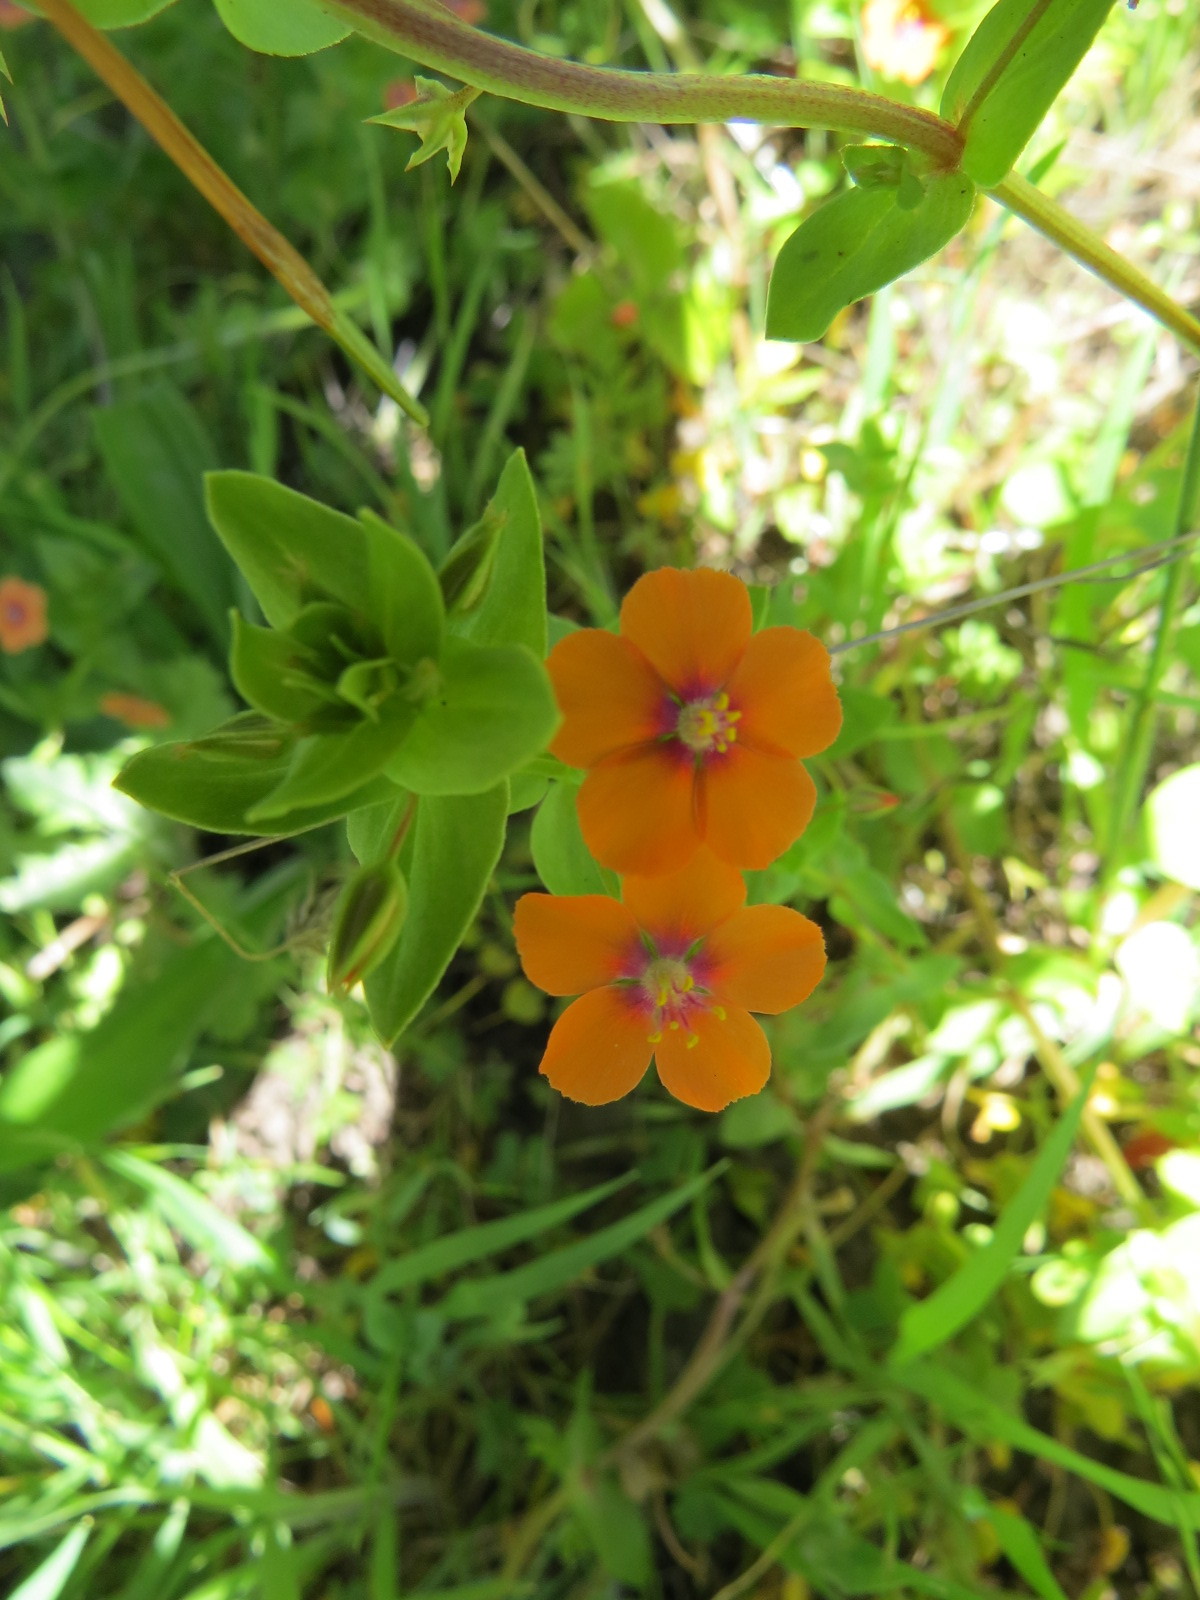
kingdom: Plantae
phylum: Tracheophyta
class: Magnoliopsida
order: Ericales
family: Primulaceae
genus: Lysimachia
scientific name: Lysimachia arvensis
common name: Scarlet pimpernel
